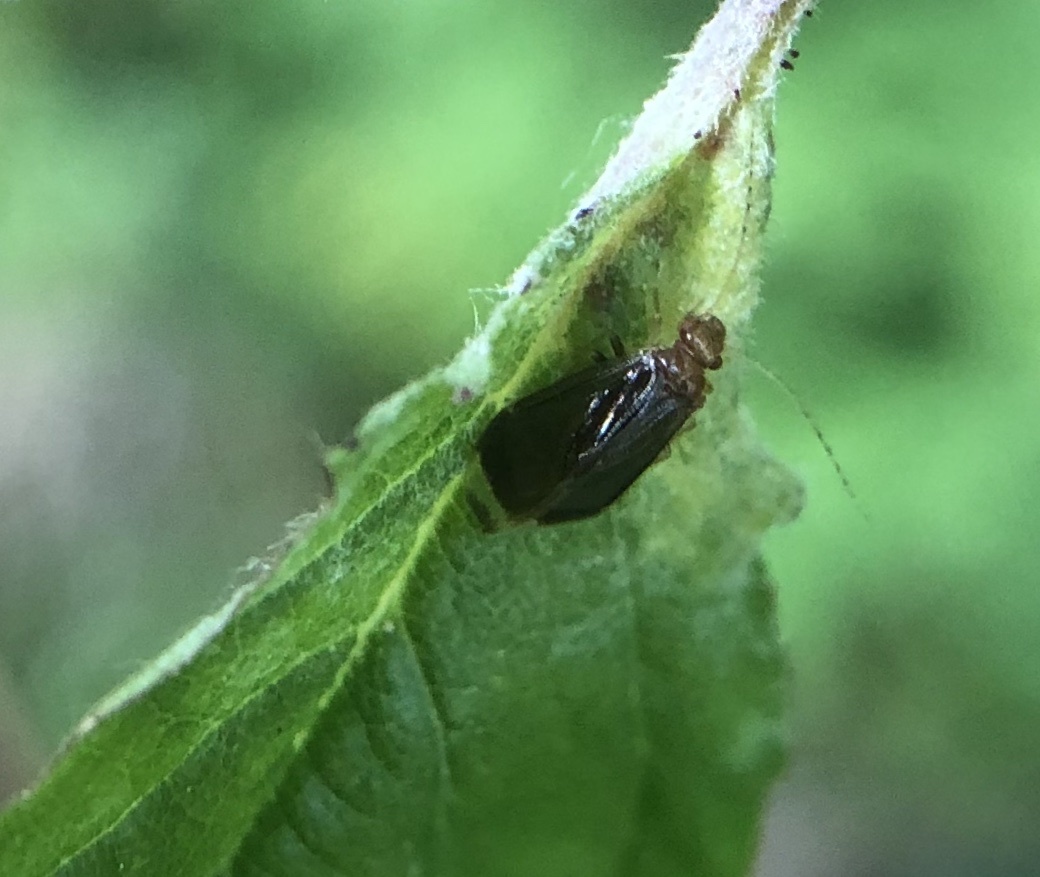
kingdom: Animalia
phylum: Arthropoda
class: Insecta
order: Psocodea
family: Amphipsocidae
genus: Polypsocus
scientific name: Polypsocus corruptus
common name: Corrupt barklouse
